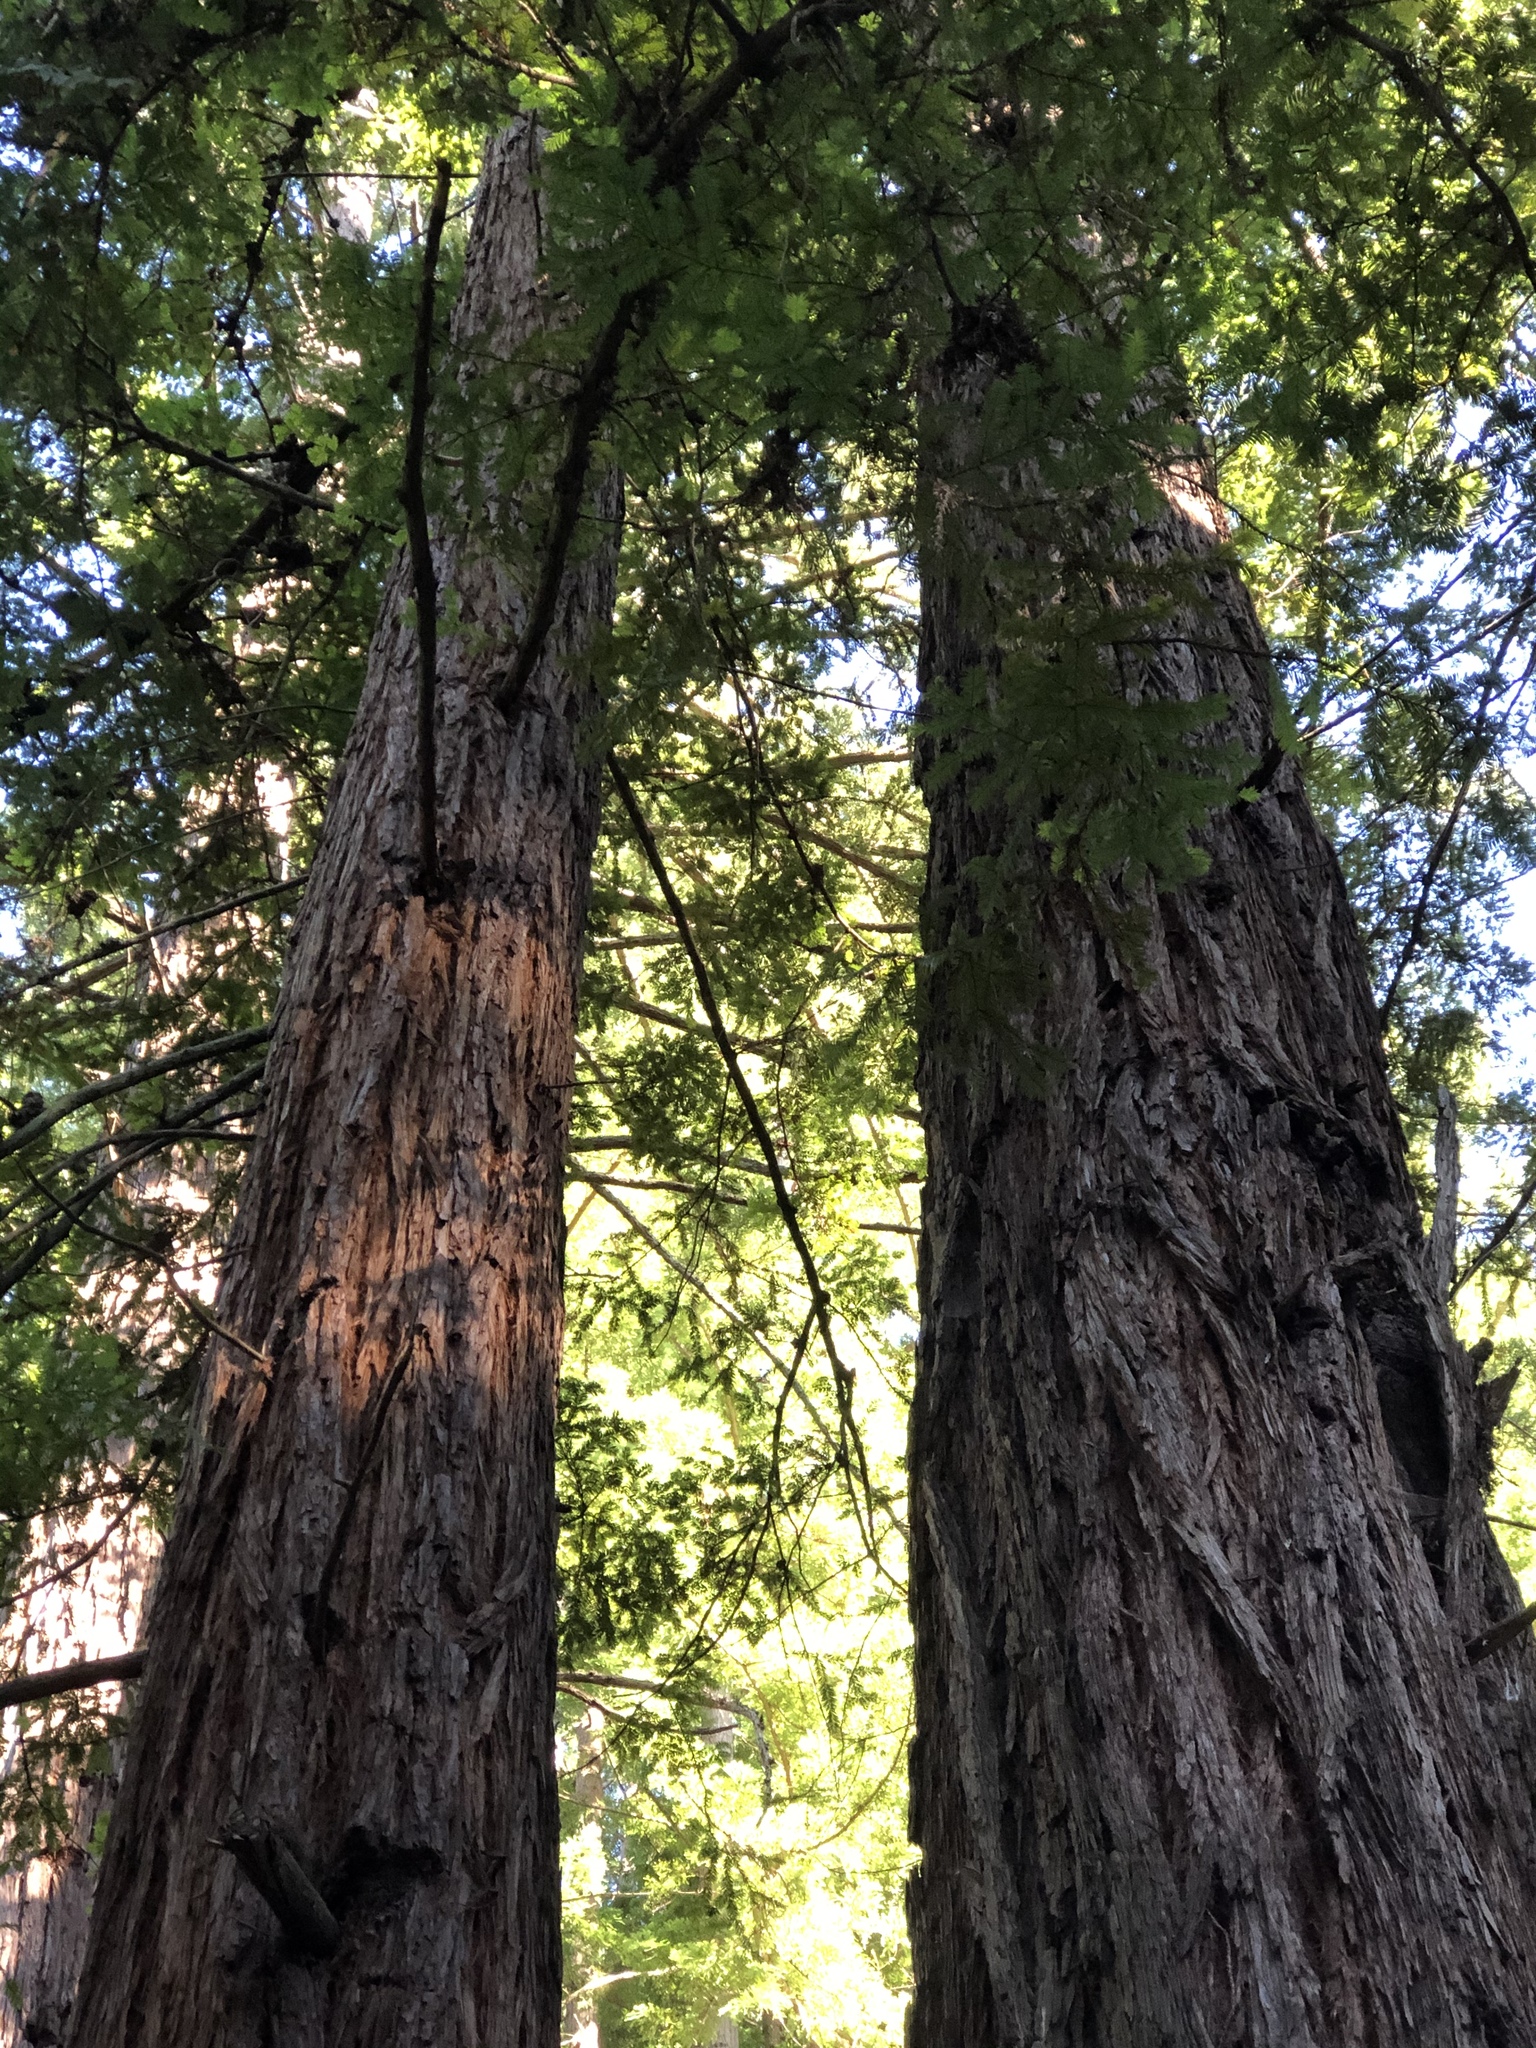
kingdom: Plantae
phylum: Tracheophyta
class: Pinopsida
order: Pinales
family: Cupressaceae
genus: Sequoia
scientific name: Sequoia sempervirens
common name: Coast redwood
